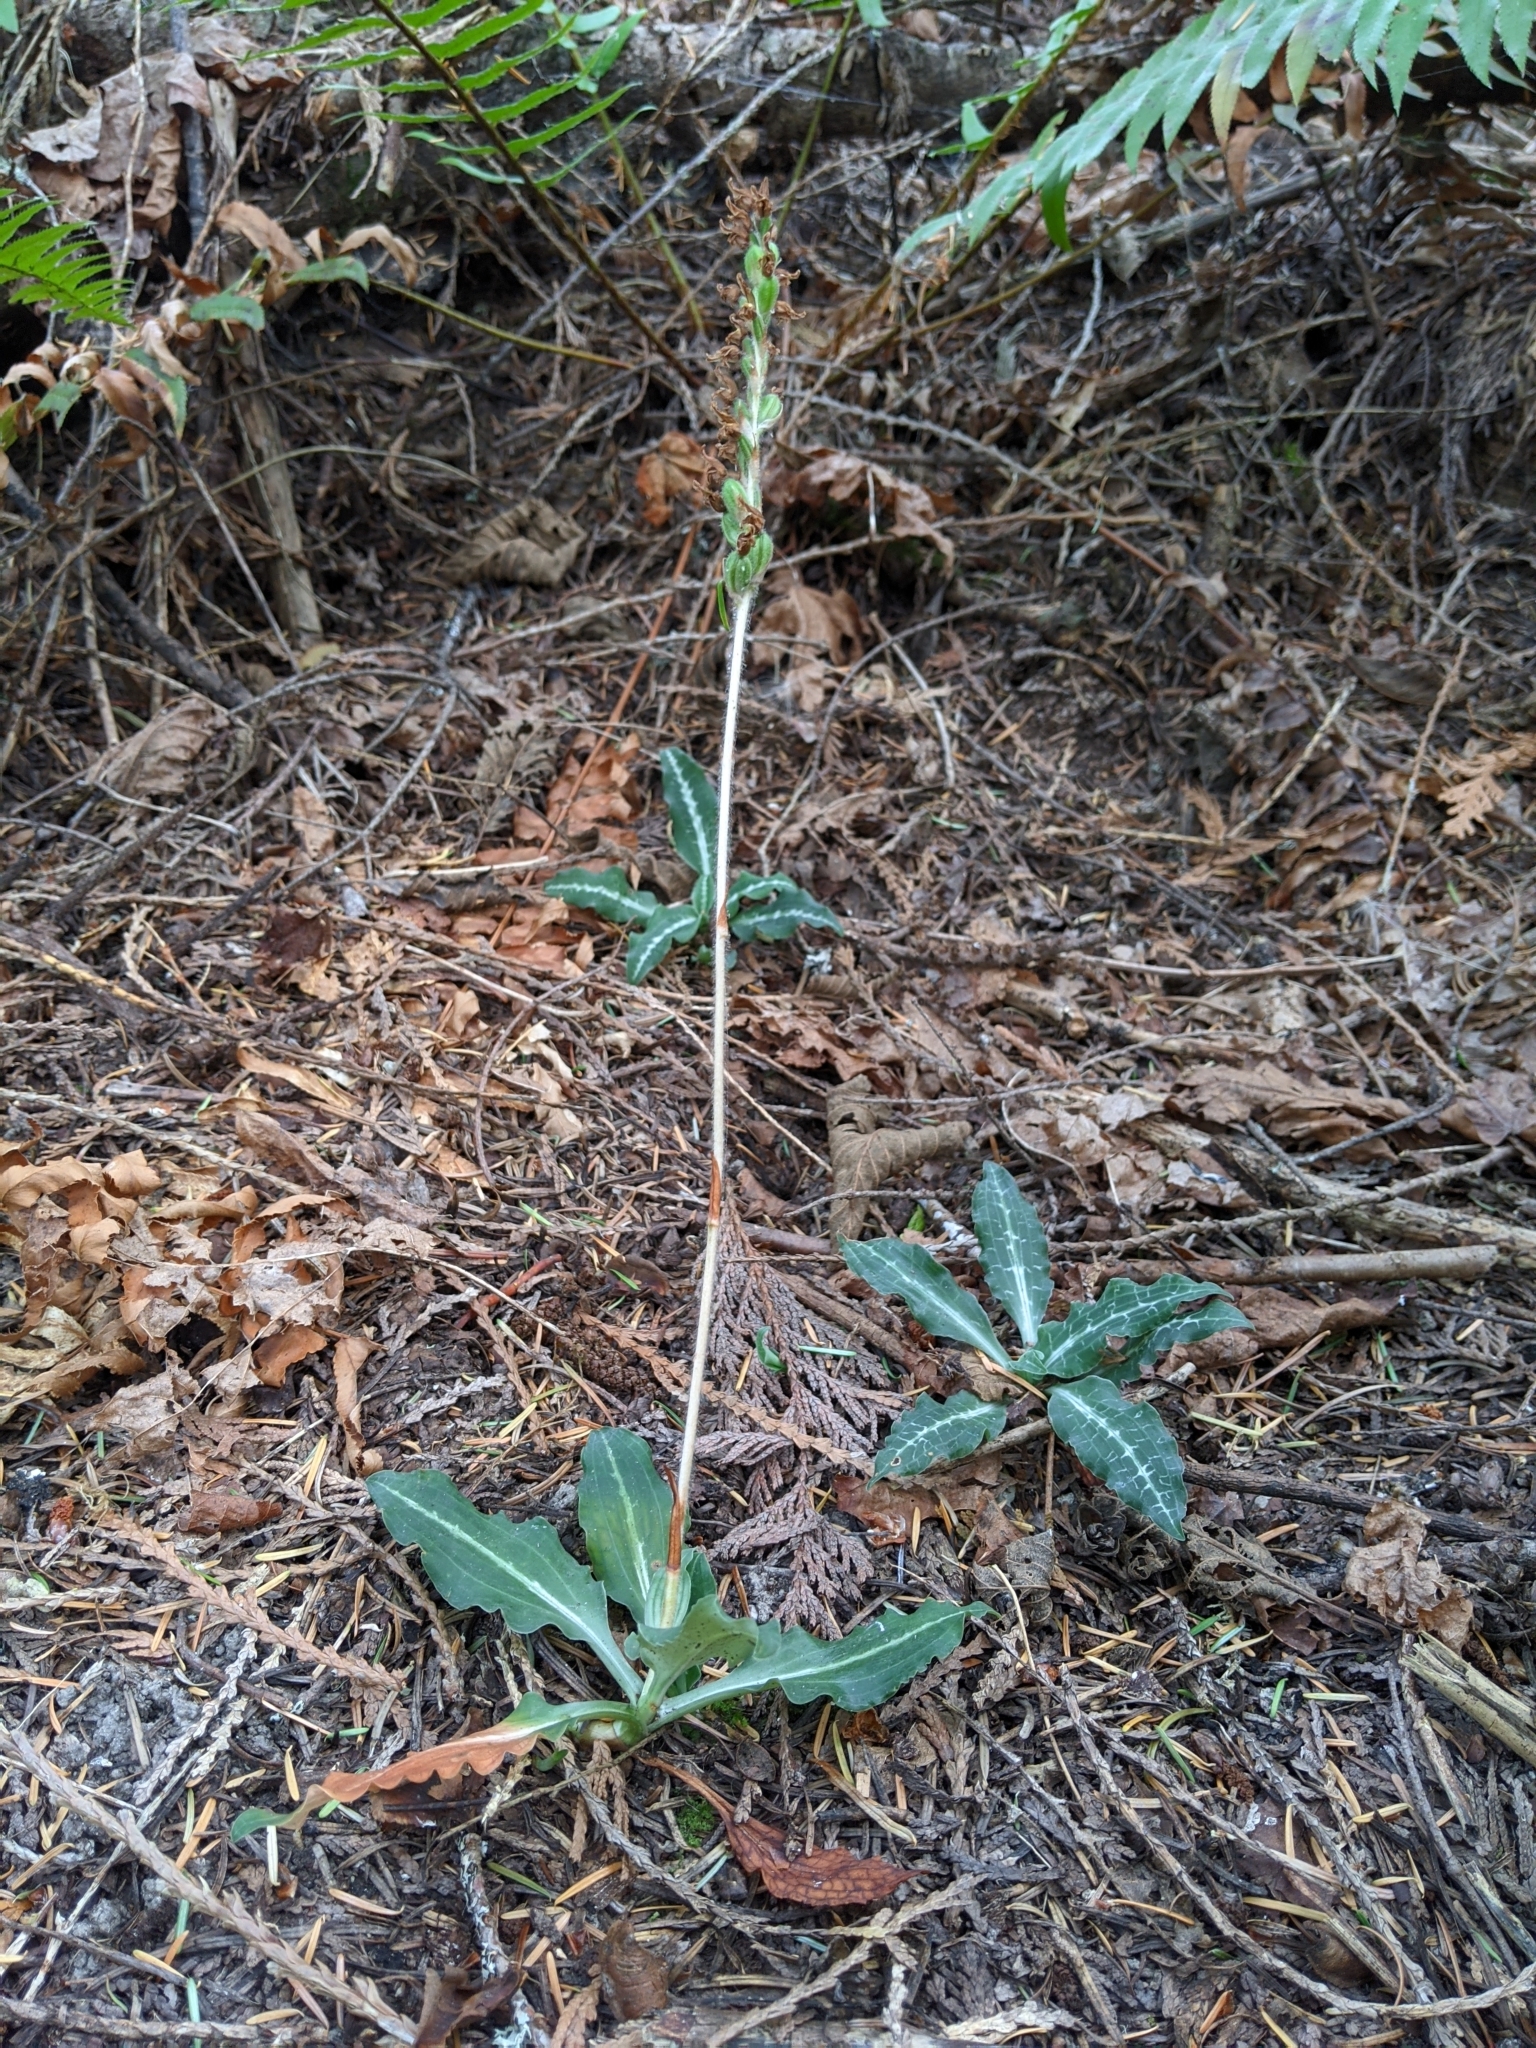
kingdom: Plantae
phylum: Tracheophyta
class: Liliopsida
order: Asparagales
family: Orchidaceae
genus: Goodyera
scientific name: Goodyera oblongifolia
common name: Giant rattlesnake-plantain
